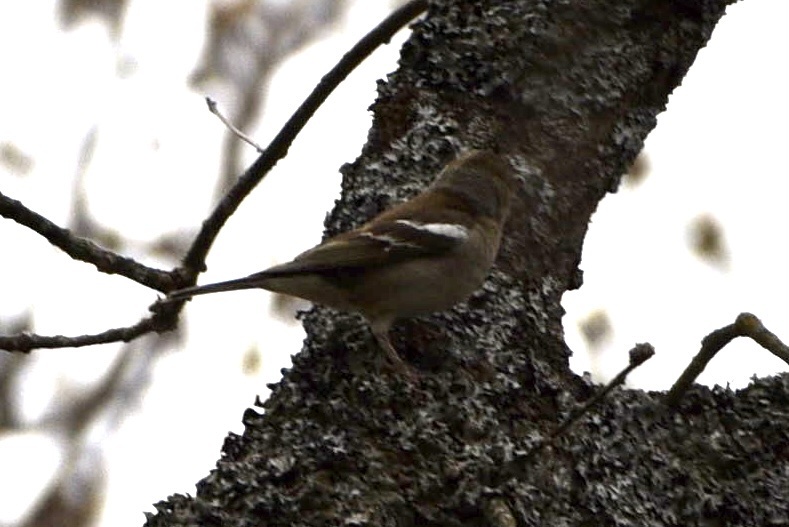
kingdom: Animalia
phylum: Chordata
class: Aves
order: Passeriformes
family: Fringillidae
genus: Fringilla
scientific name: Fringilla coelebs
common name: Common chaffinch
